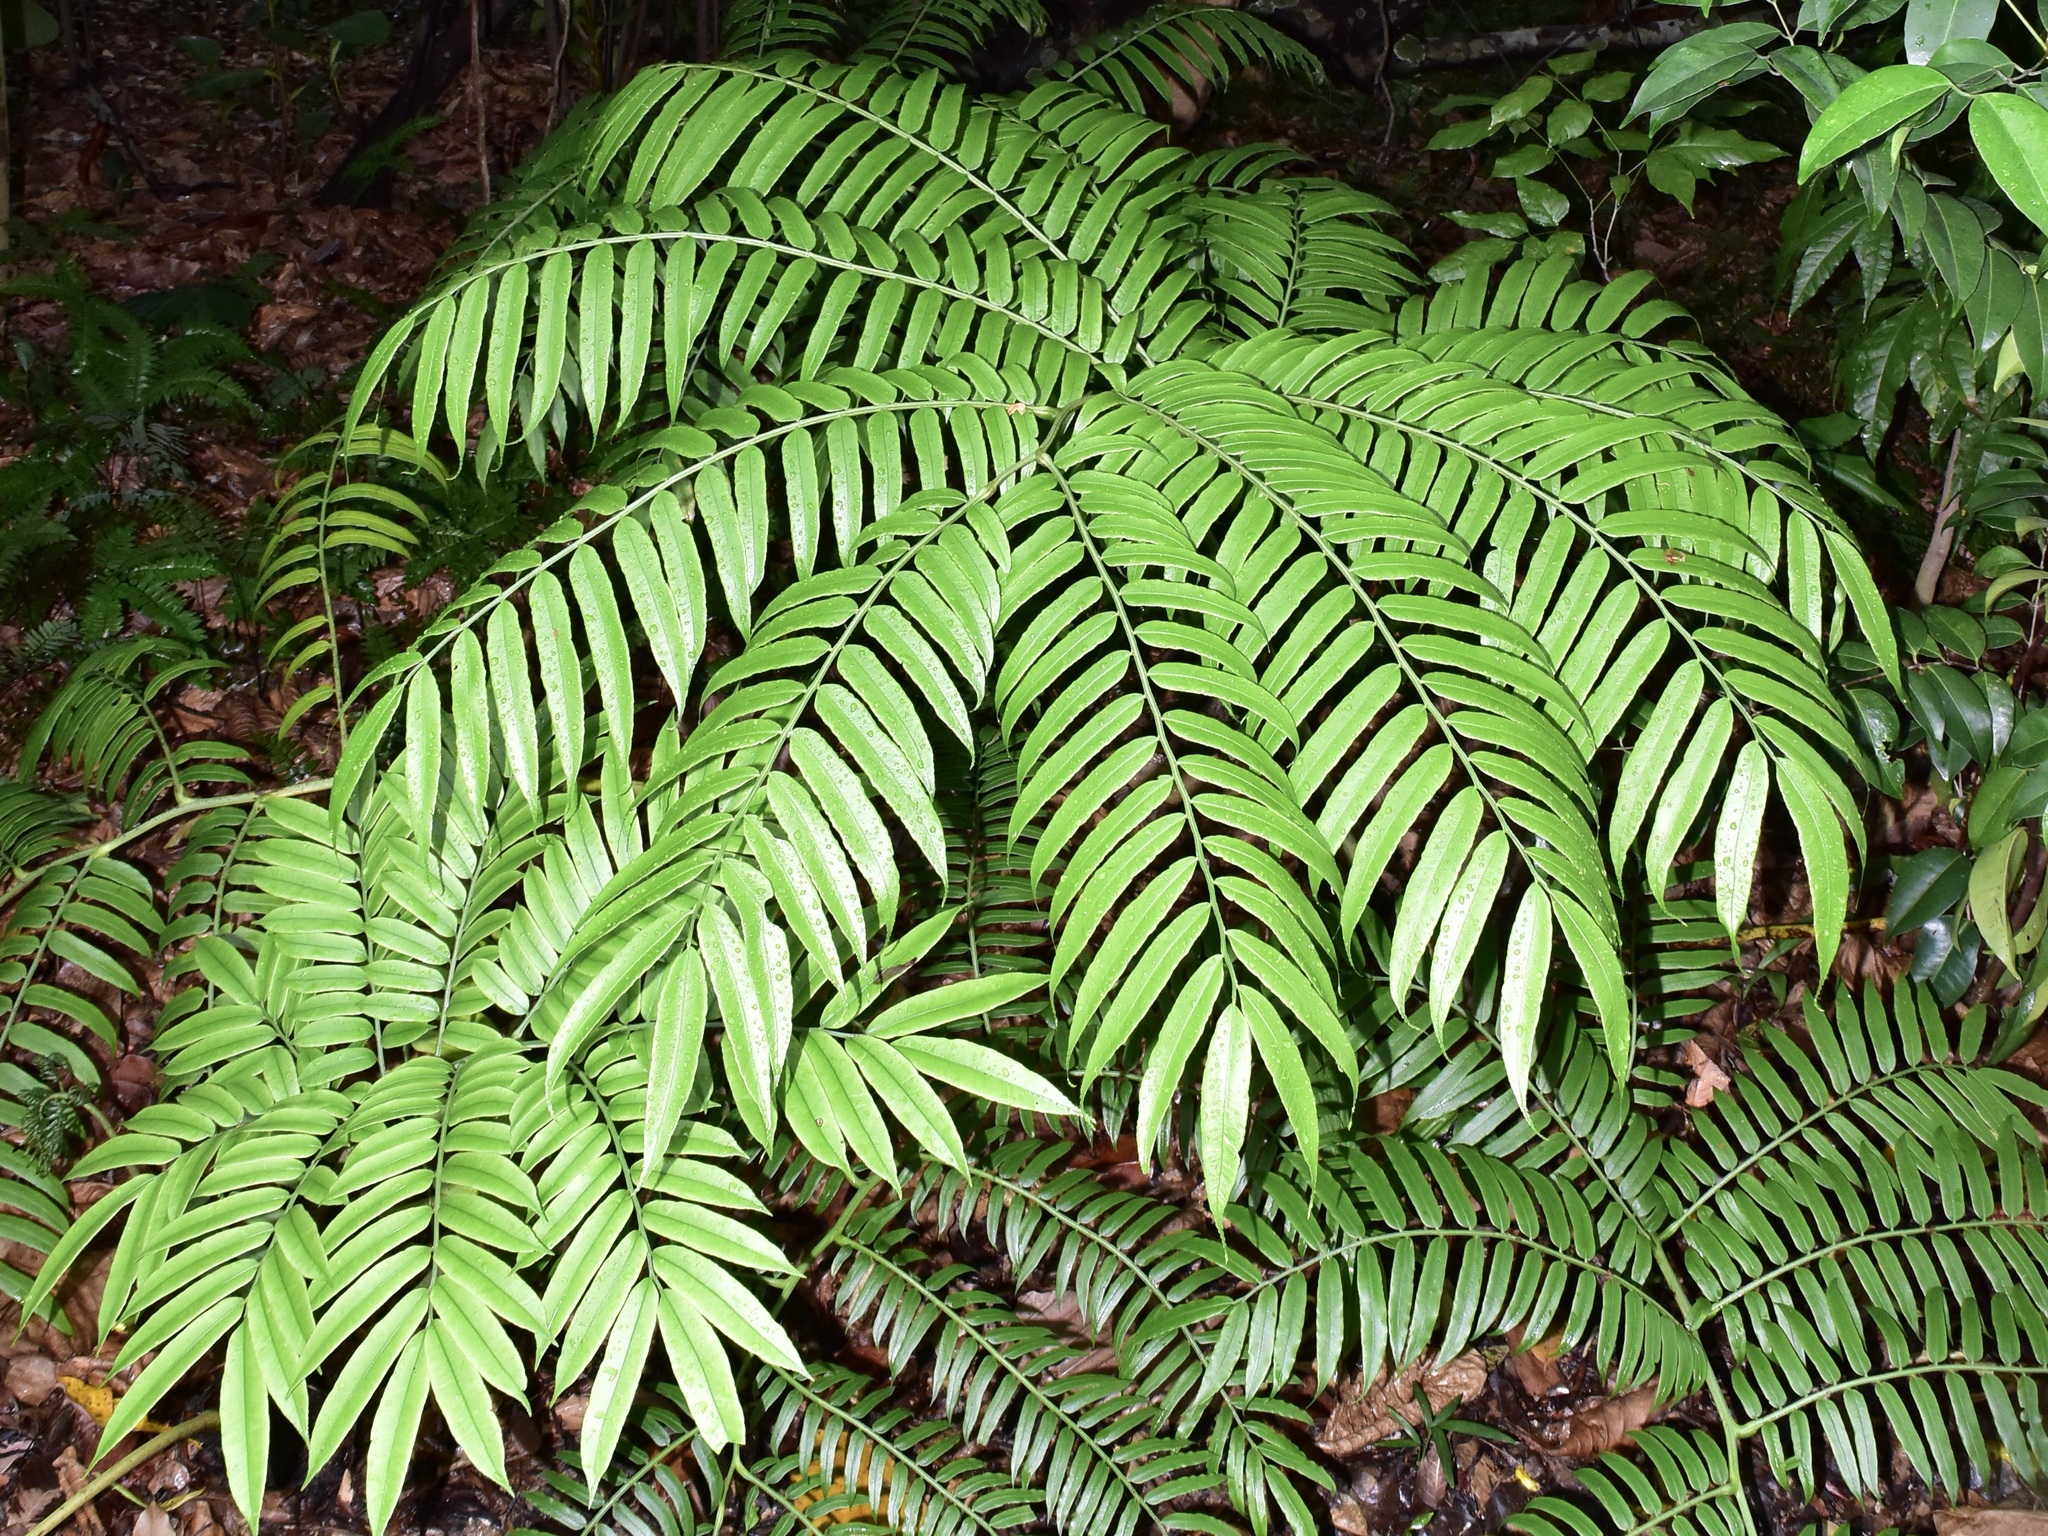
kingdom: Plantae
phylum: Tracheophyta
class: Polypodiopsida
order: Marattiales
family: Marattiaceae
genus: Angiopteris
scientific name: Angiopteris evecta
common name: Mule's-foot fern
